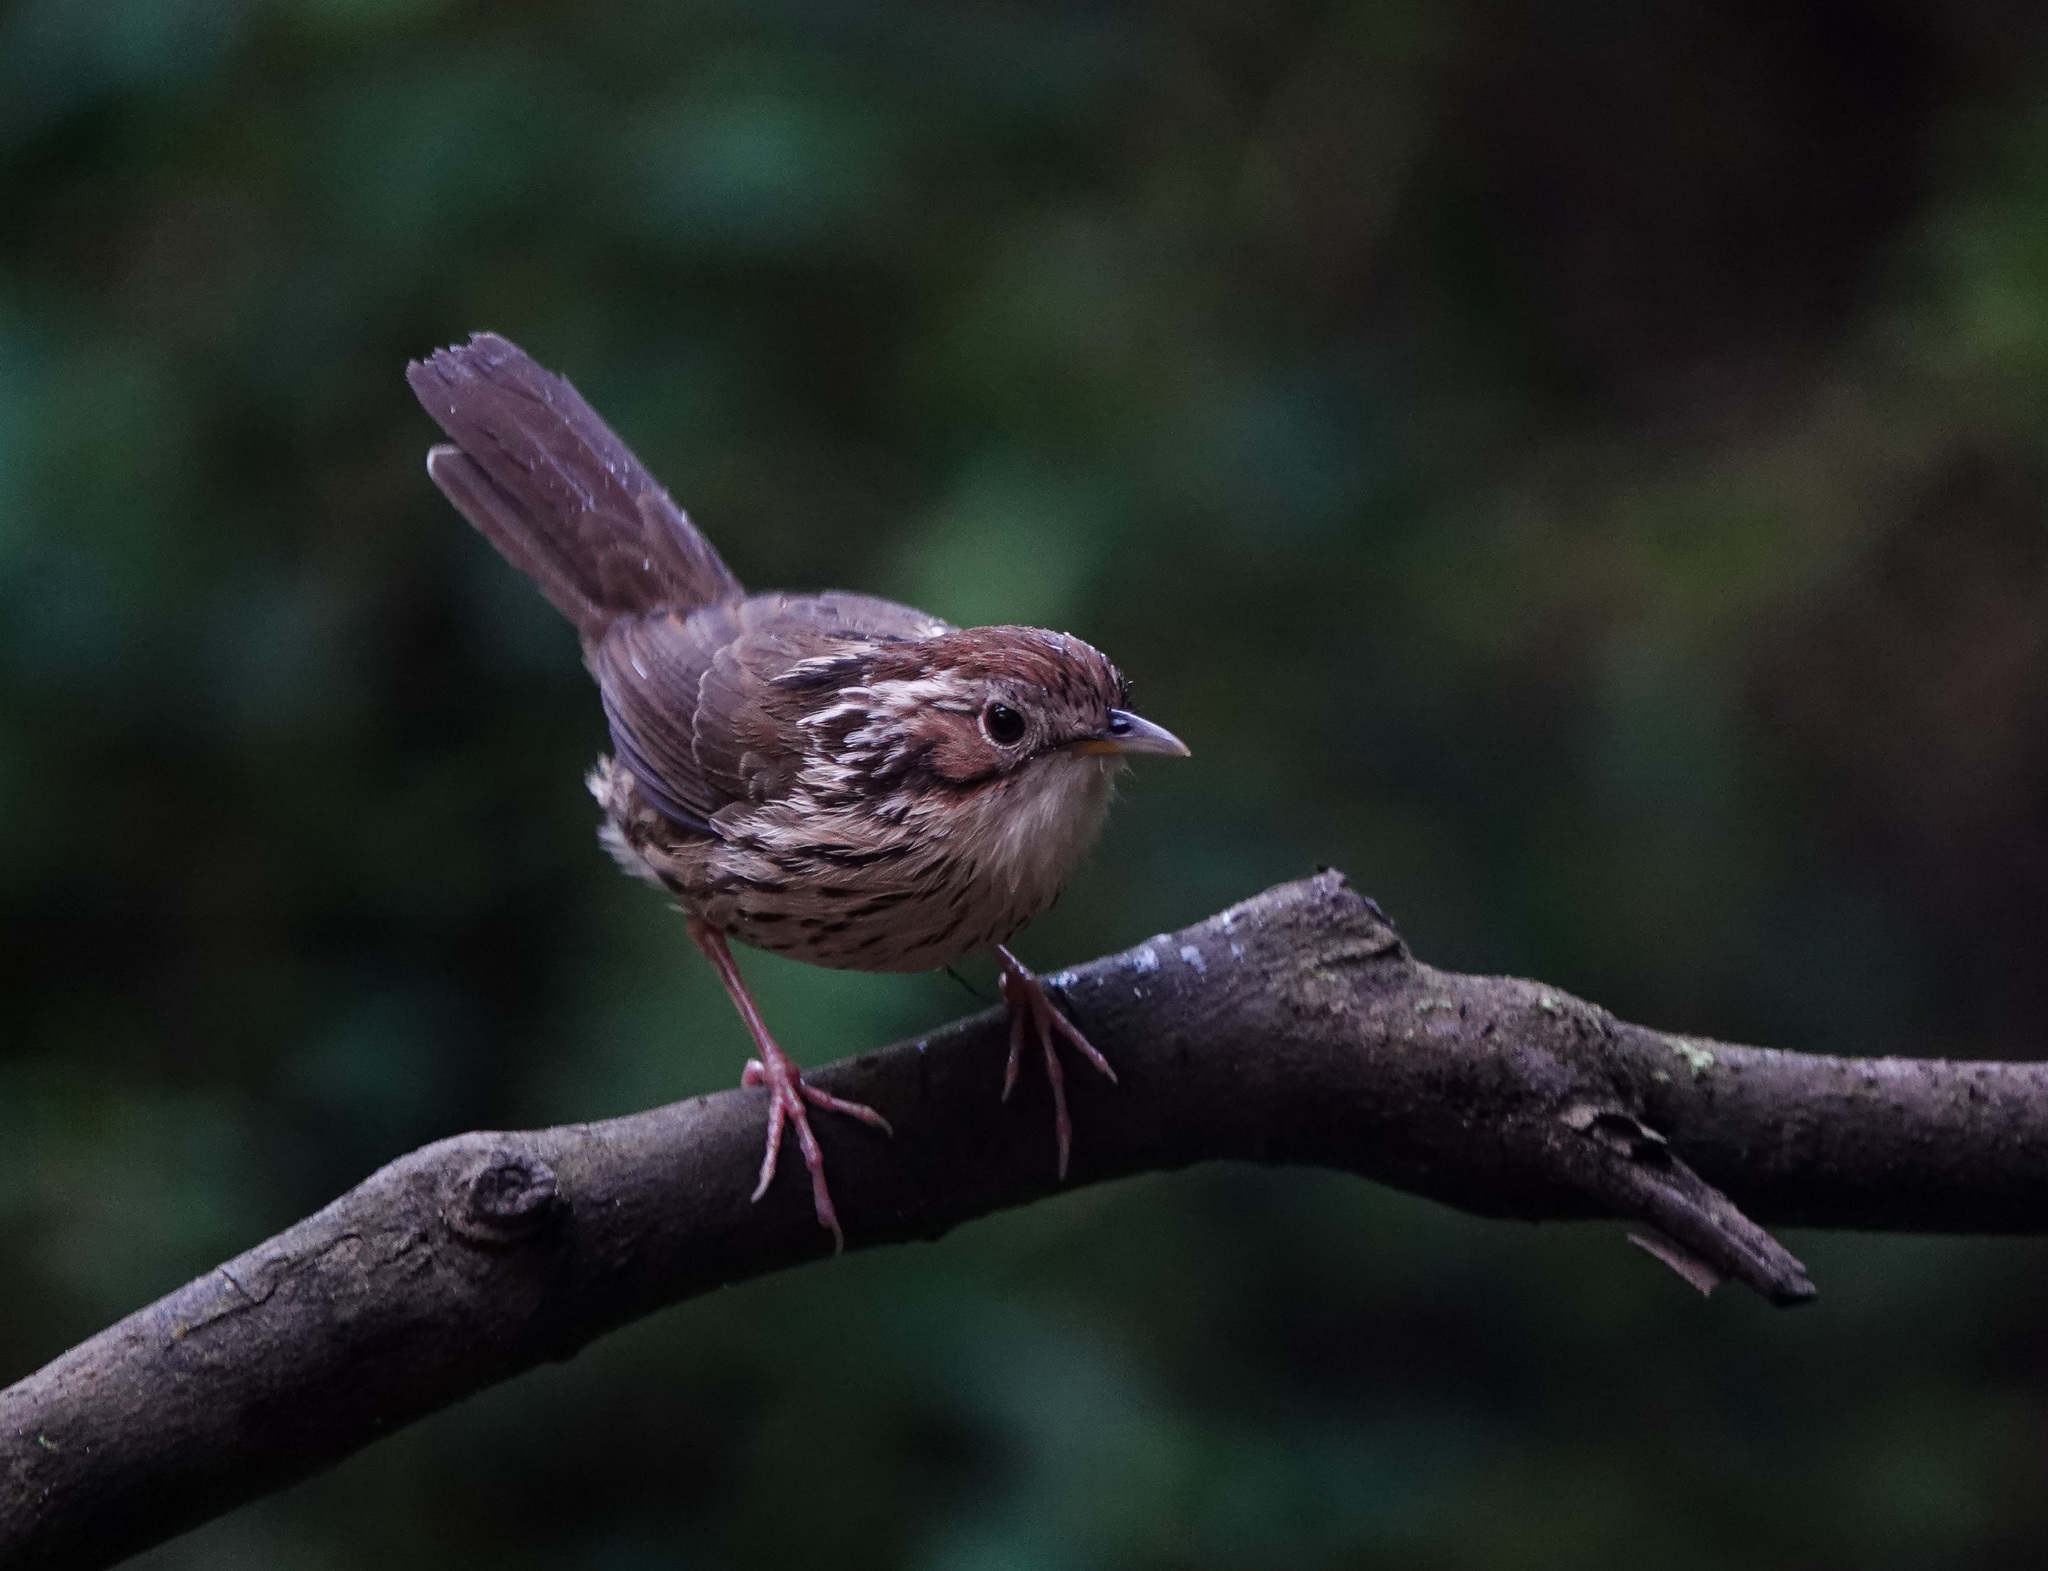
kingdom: Animalia
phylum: Chordata
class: Aves
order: Passeriformes
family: Pellorneidae
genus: Pellorneum
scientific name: Pellorneum ruficeps
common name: Puff-throated babbler
